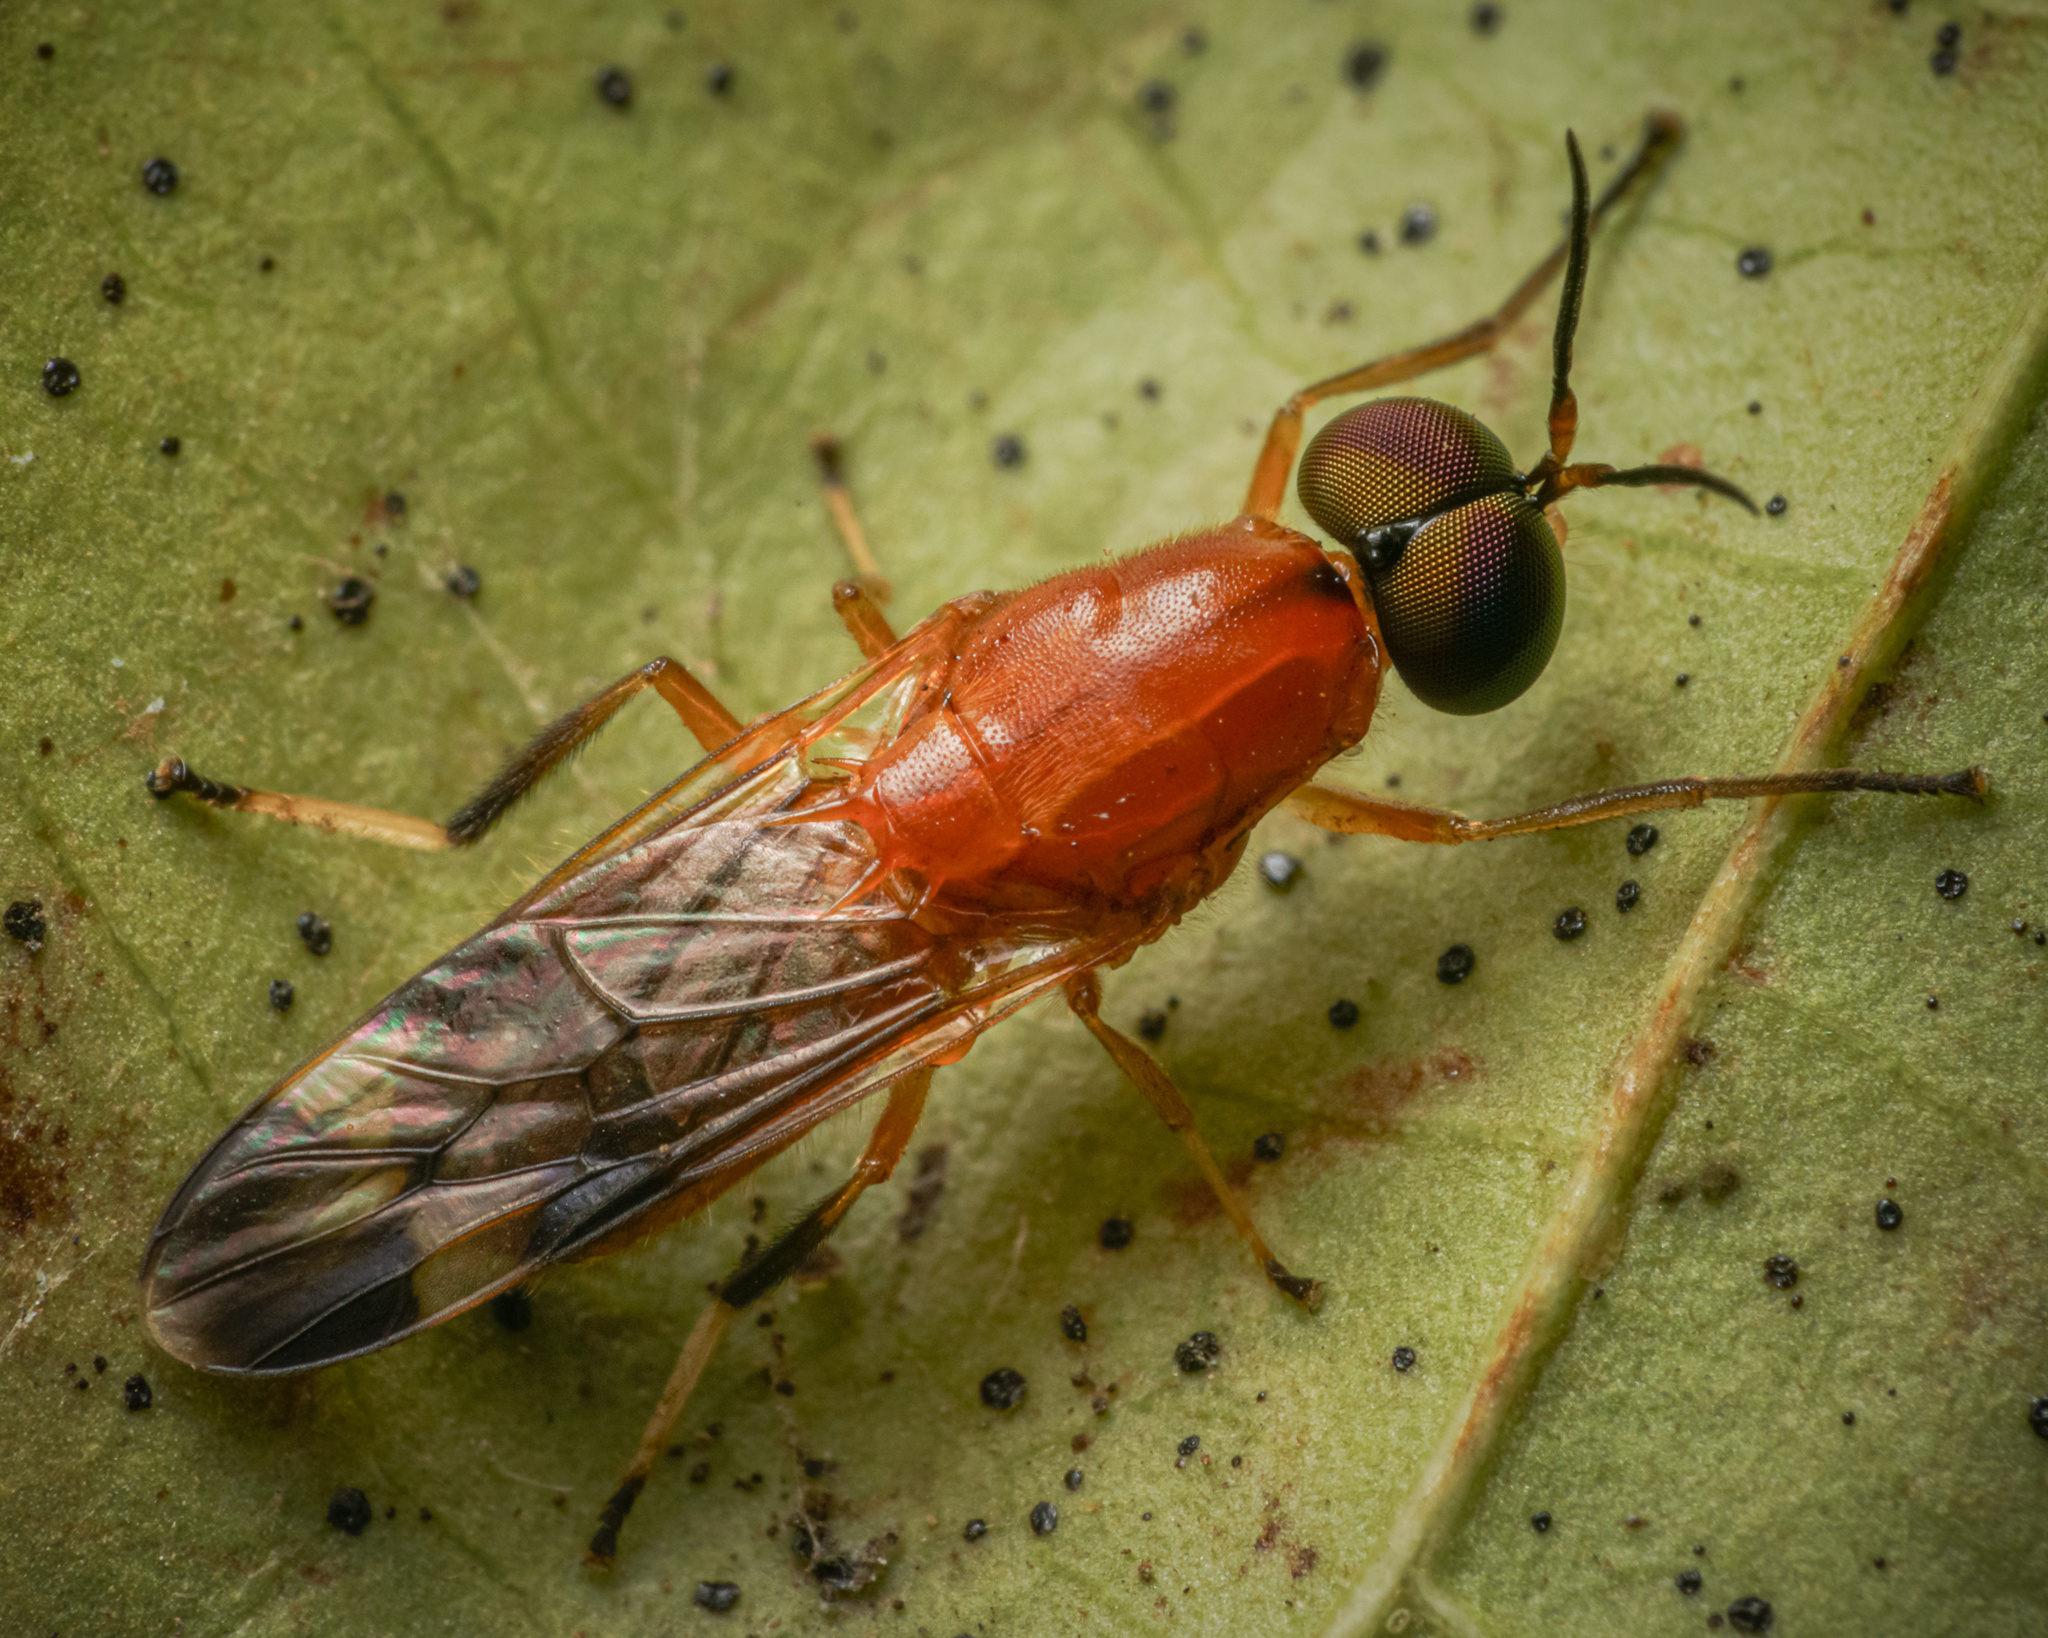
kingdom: Animalia
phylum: Arthropoda
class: Insecta
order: Diptera
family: Stratiomyidae
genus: Rosapha
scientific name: Rosapha habilis
